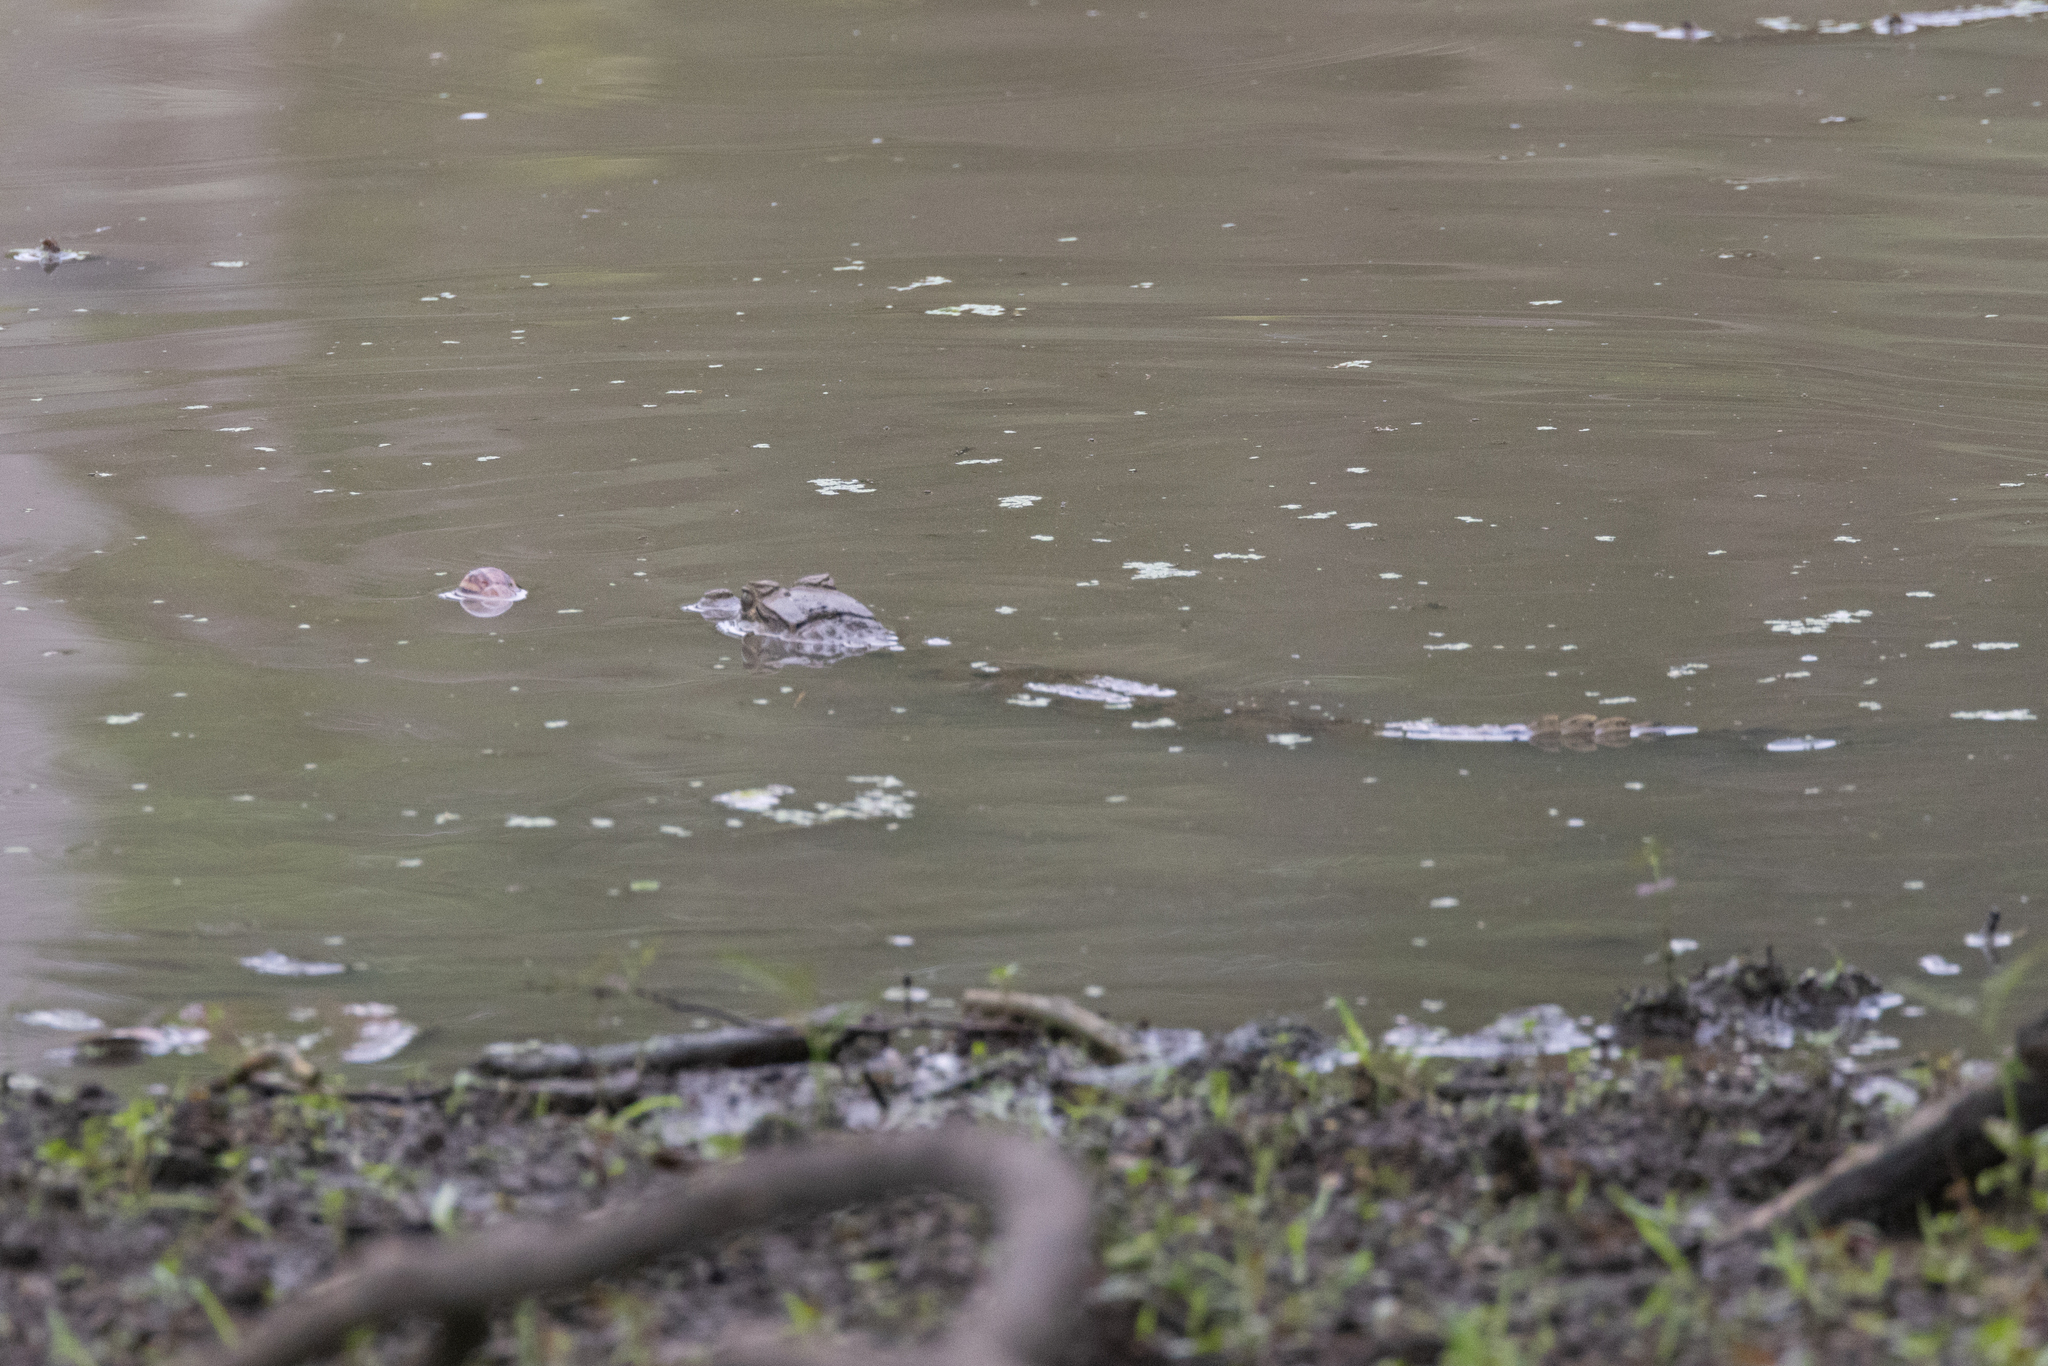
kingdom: Animalia
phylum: Chordata
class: Crocodylia
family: Alligatoridae
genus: Caiman
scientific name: Caiman crocodilus
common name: Common caiman
